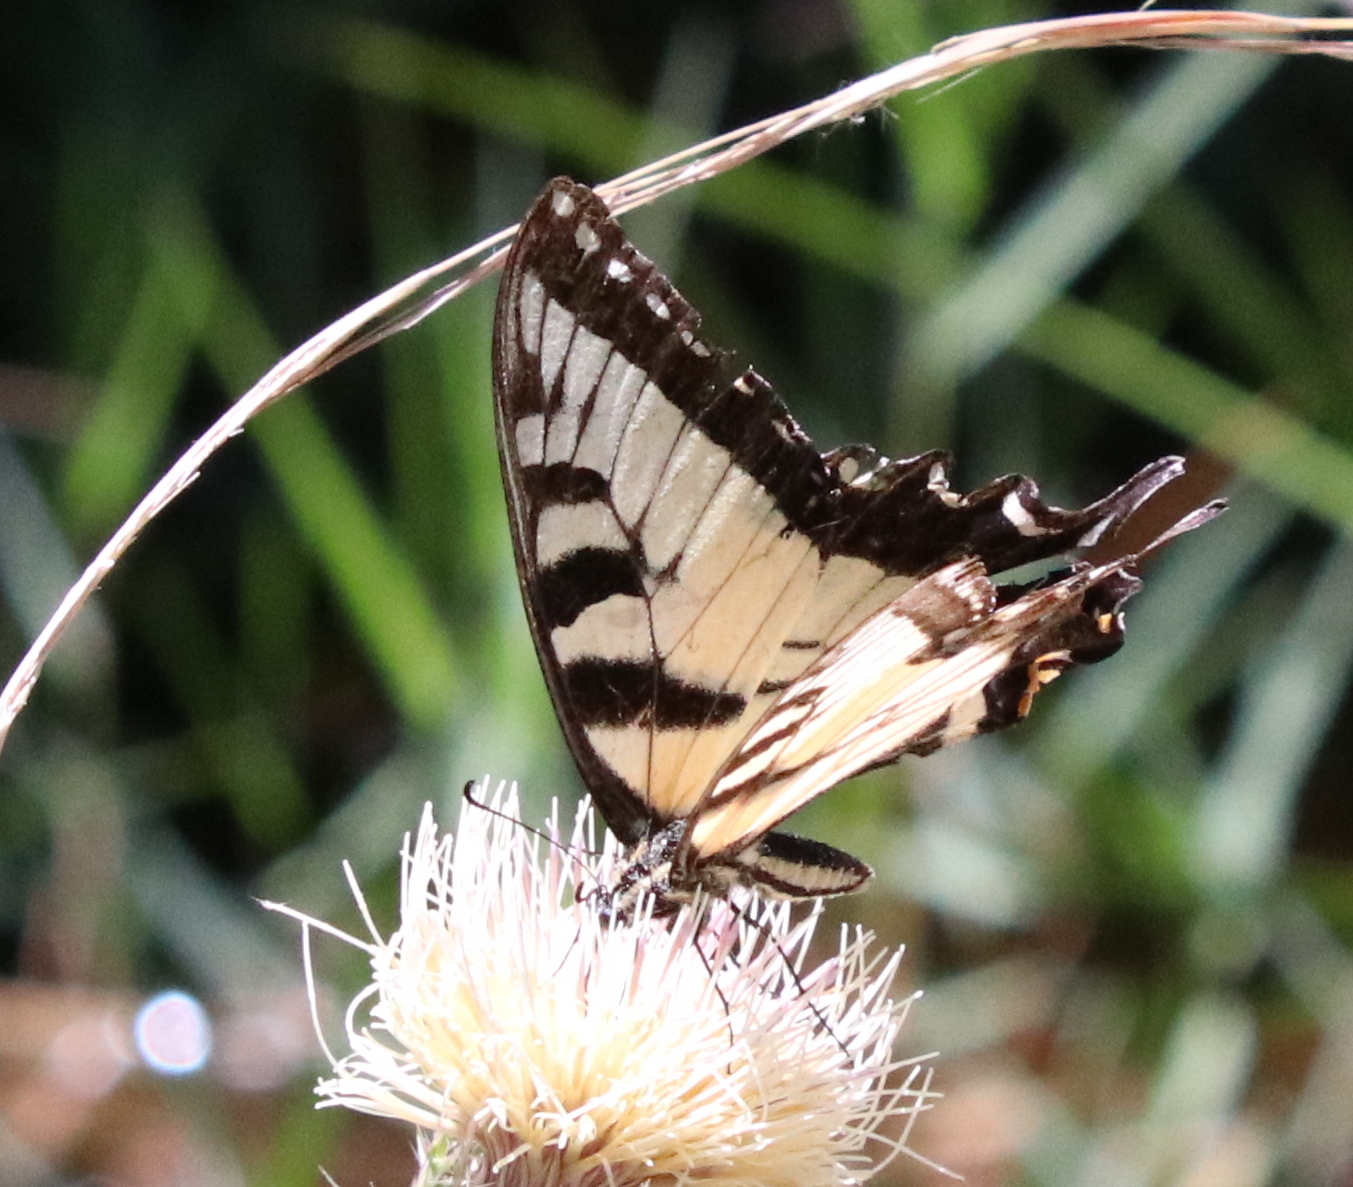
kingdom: Animalia
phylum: Arthropoda
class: Insecta
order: Lepidoptera
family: Papilionidae
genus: Papilio
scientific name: Papilio glaucus
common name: Tiger swallowtail
